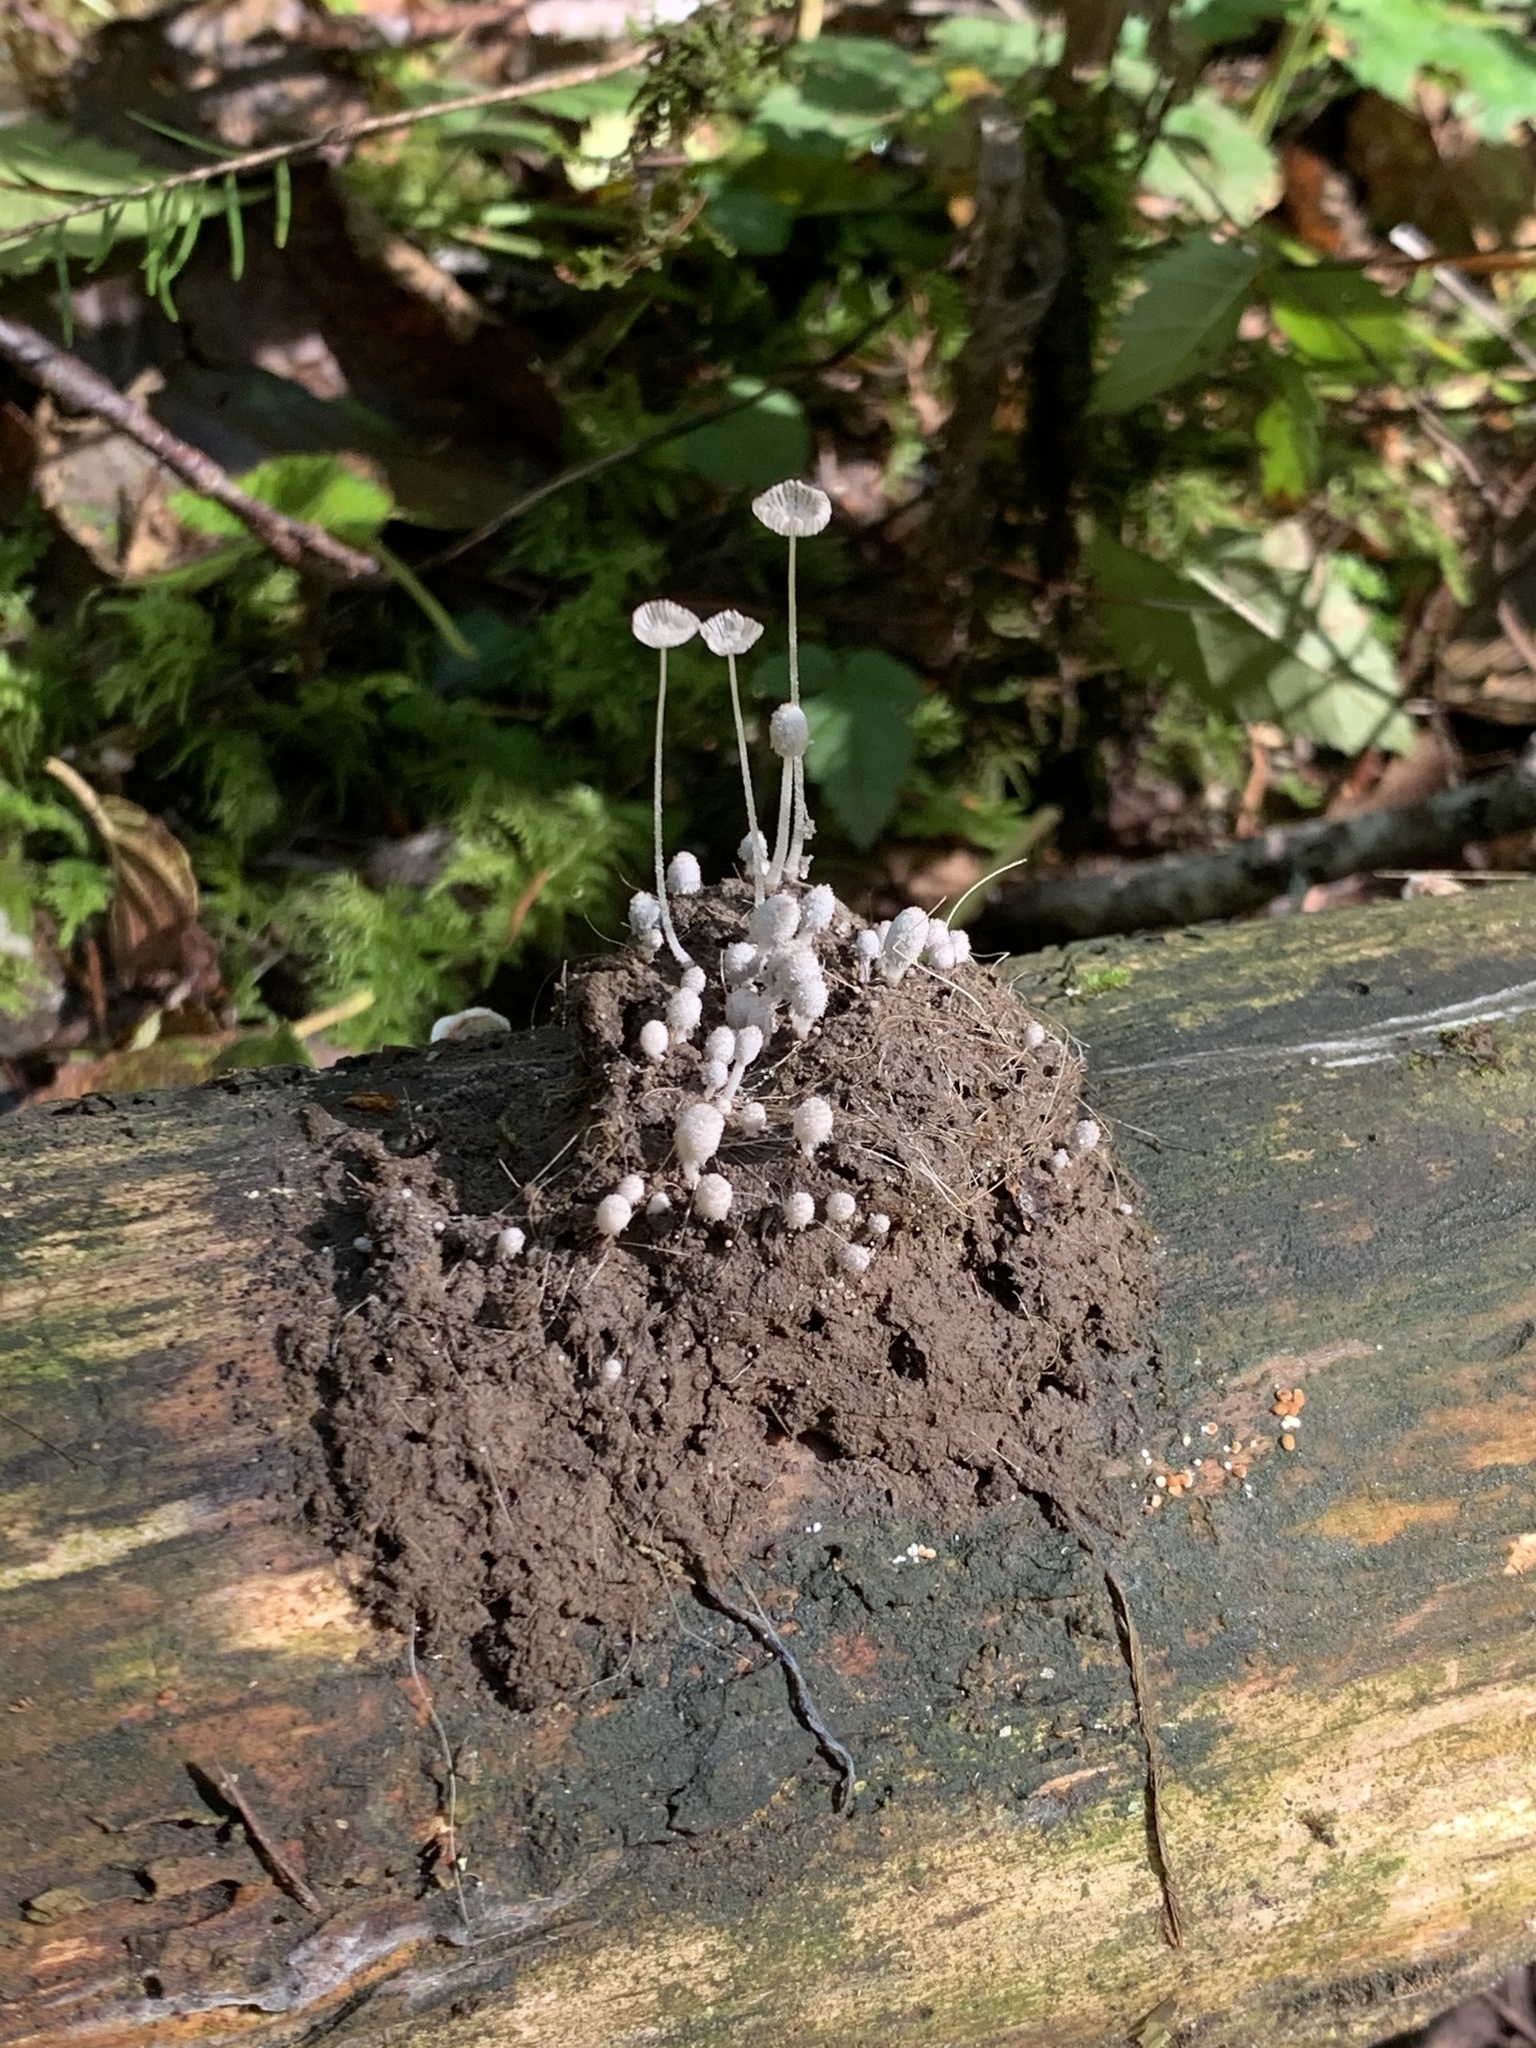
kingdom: Fungi
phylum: Basidiomycota
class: Agaricomycetes
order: Agaricales
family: Psathyrellaceae
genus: Coprinopsis
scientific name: Coprinopsis stercorea
